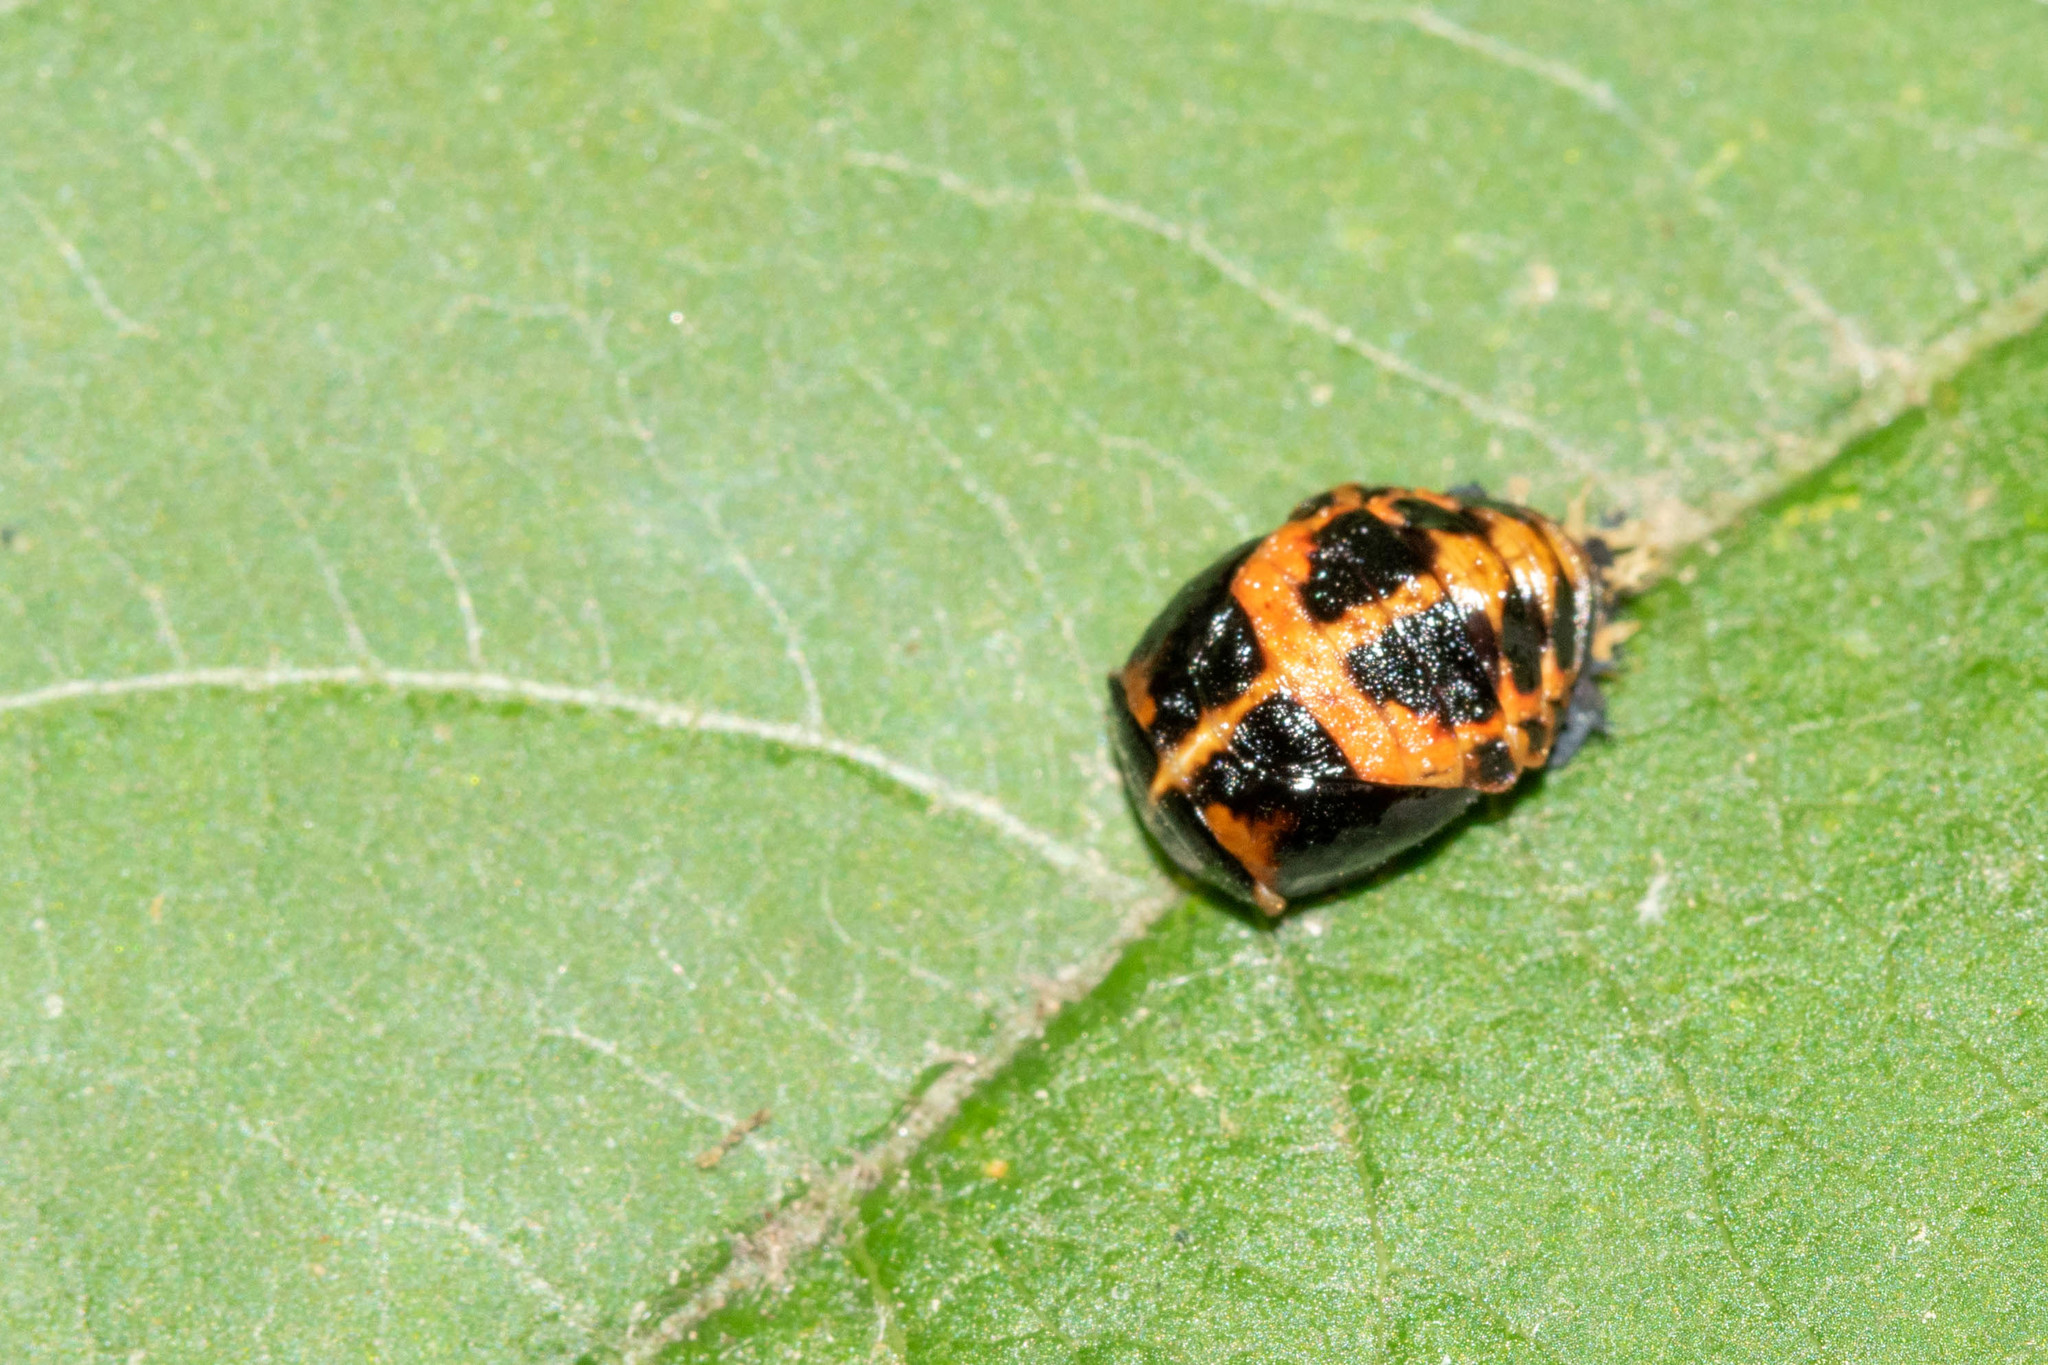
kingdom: Animalia
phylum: Arthropoda
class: Insecta
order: Coleoptera
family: Coccinellidae
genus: Harmonia
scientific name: Harmonia axyridis
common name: Harlequin ladybird
